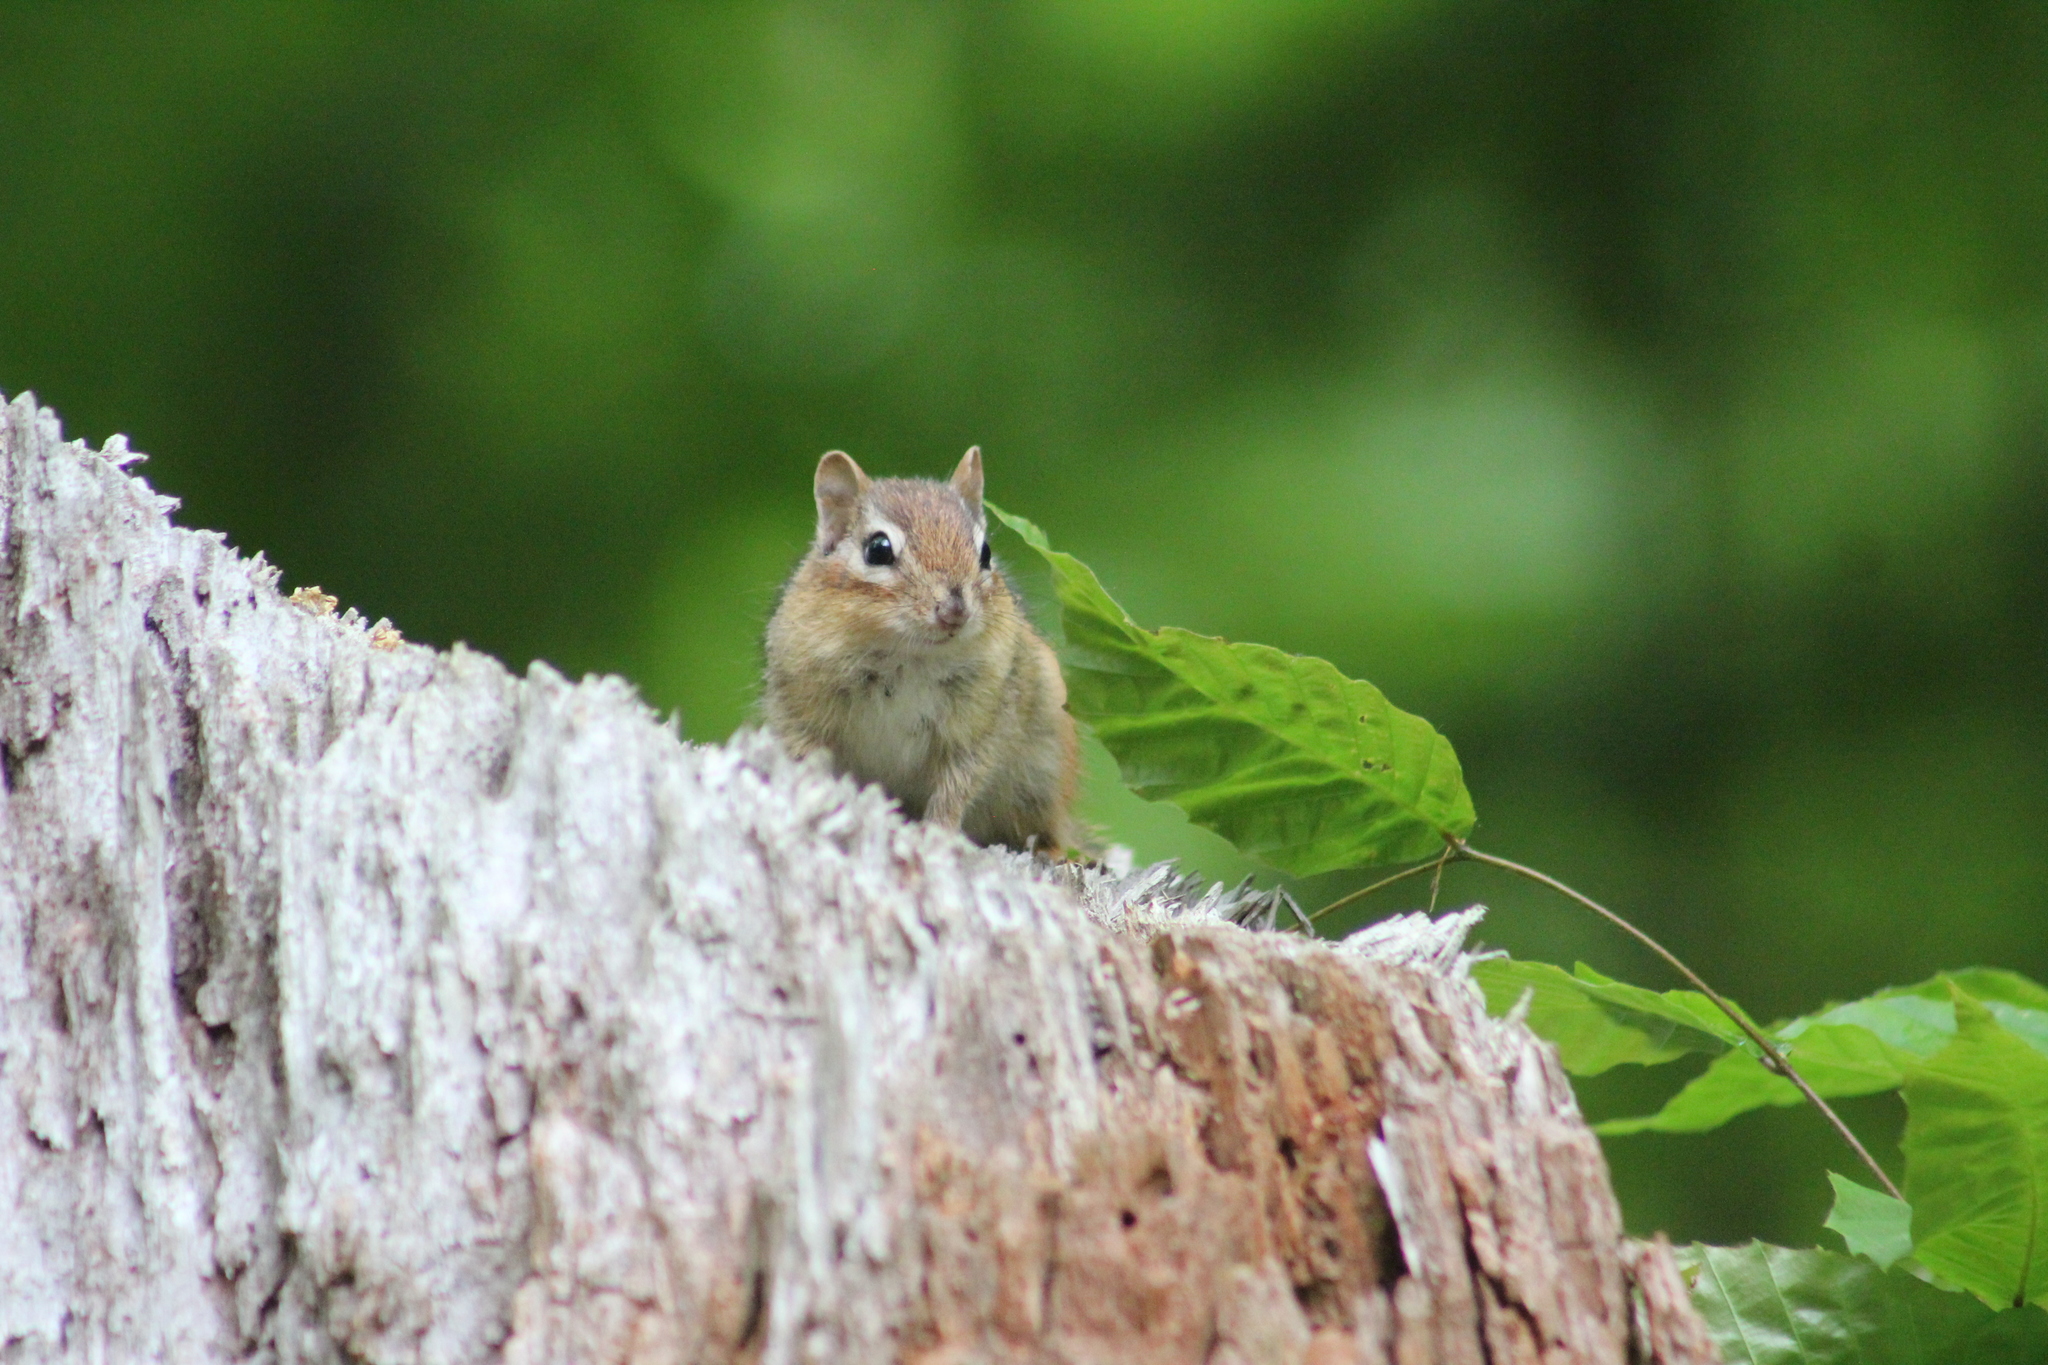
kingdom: Animalia
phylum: Chordata
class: Mammalia
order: Rodentia
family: Sciuridae
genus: Tamias
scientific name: Tamias striatus
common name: Eastern chipmunk
